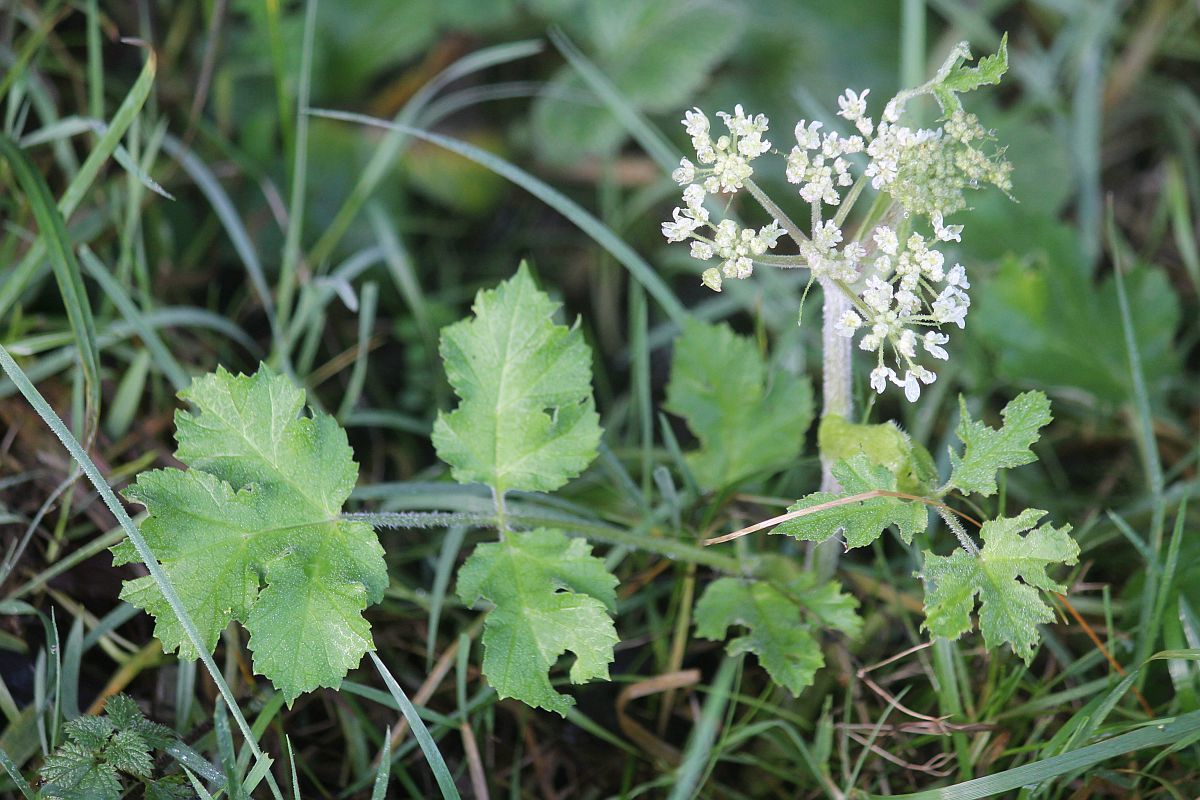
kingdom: Plantae
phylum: Tracheophyta
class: Magnoliopsida
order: Apiales
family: Apiaceae
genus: Heracleum
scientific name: Heracleum sphondylium
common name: Hogweed
